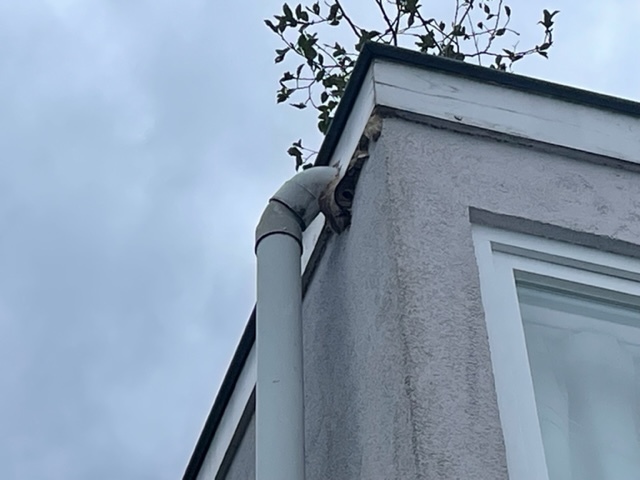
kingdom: Animalia
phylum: Arthropoda
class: Insecta
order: Hymenoptera
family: Vespidae
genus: Vespa
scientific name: Vespa velutina
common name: Asian hornet
